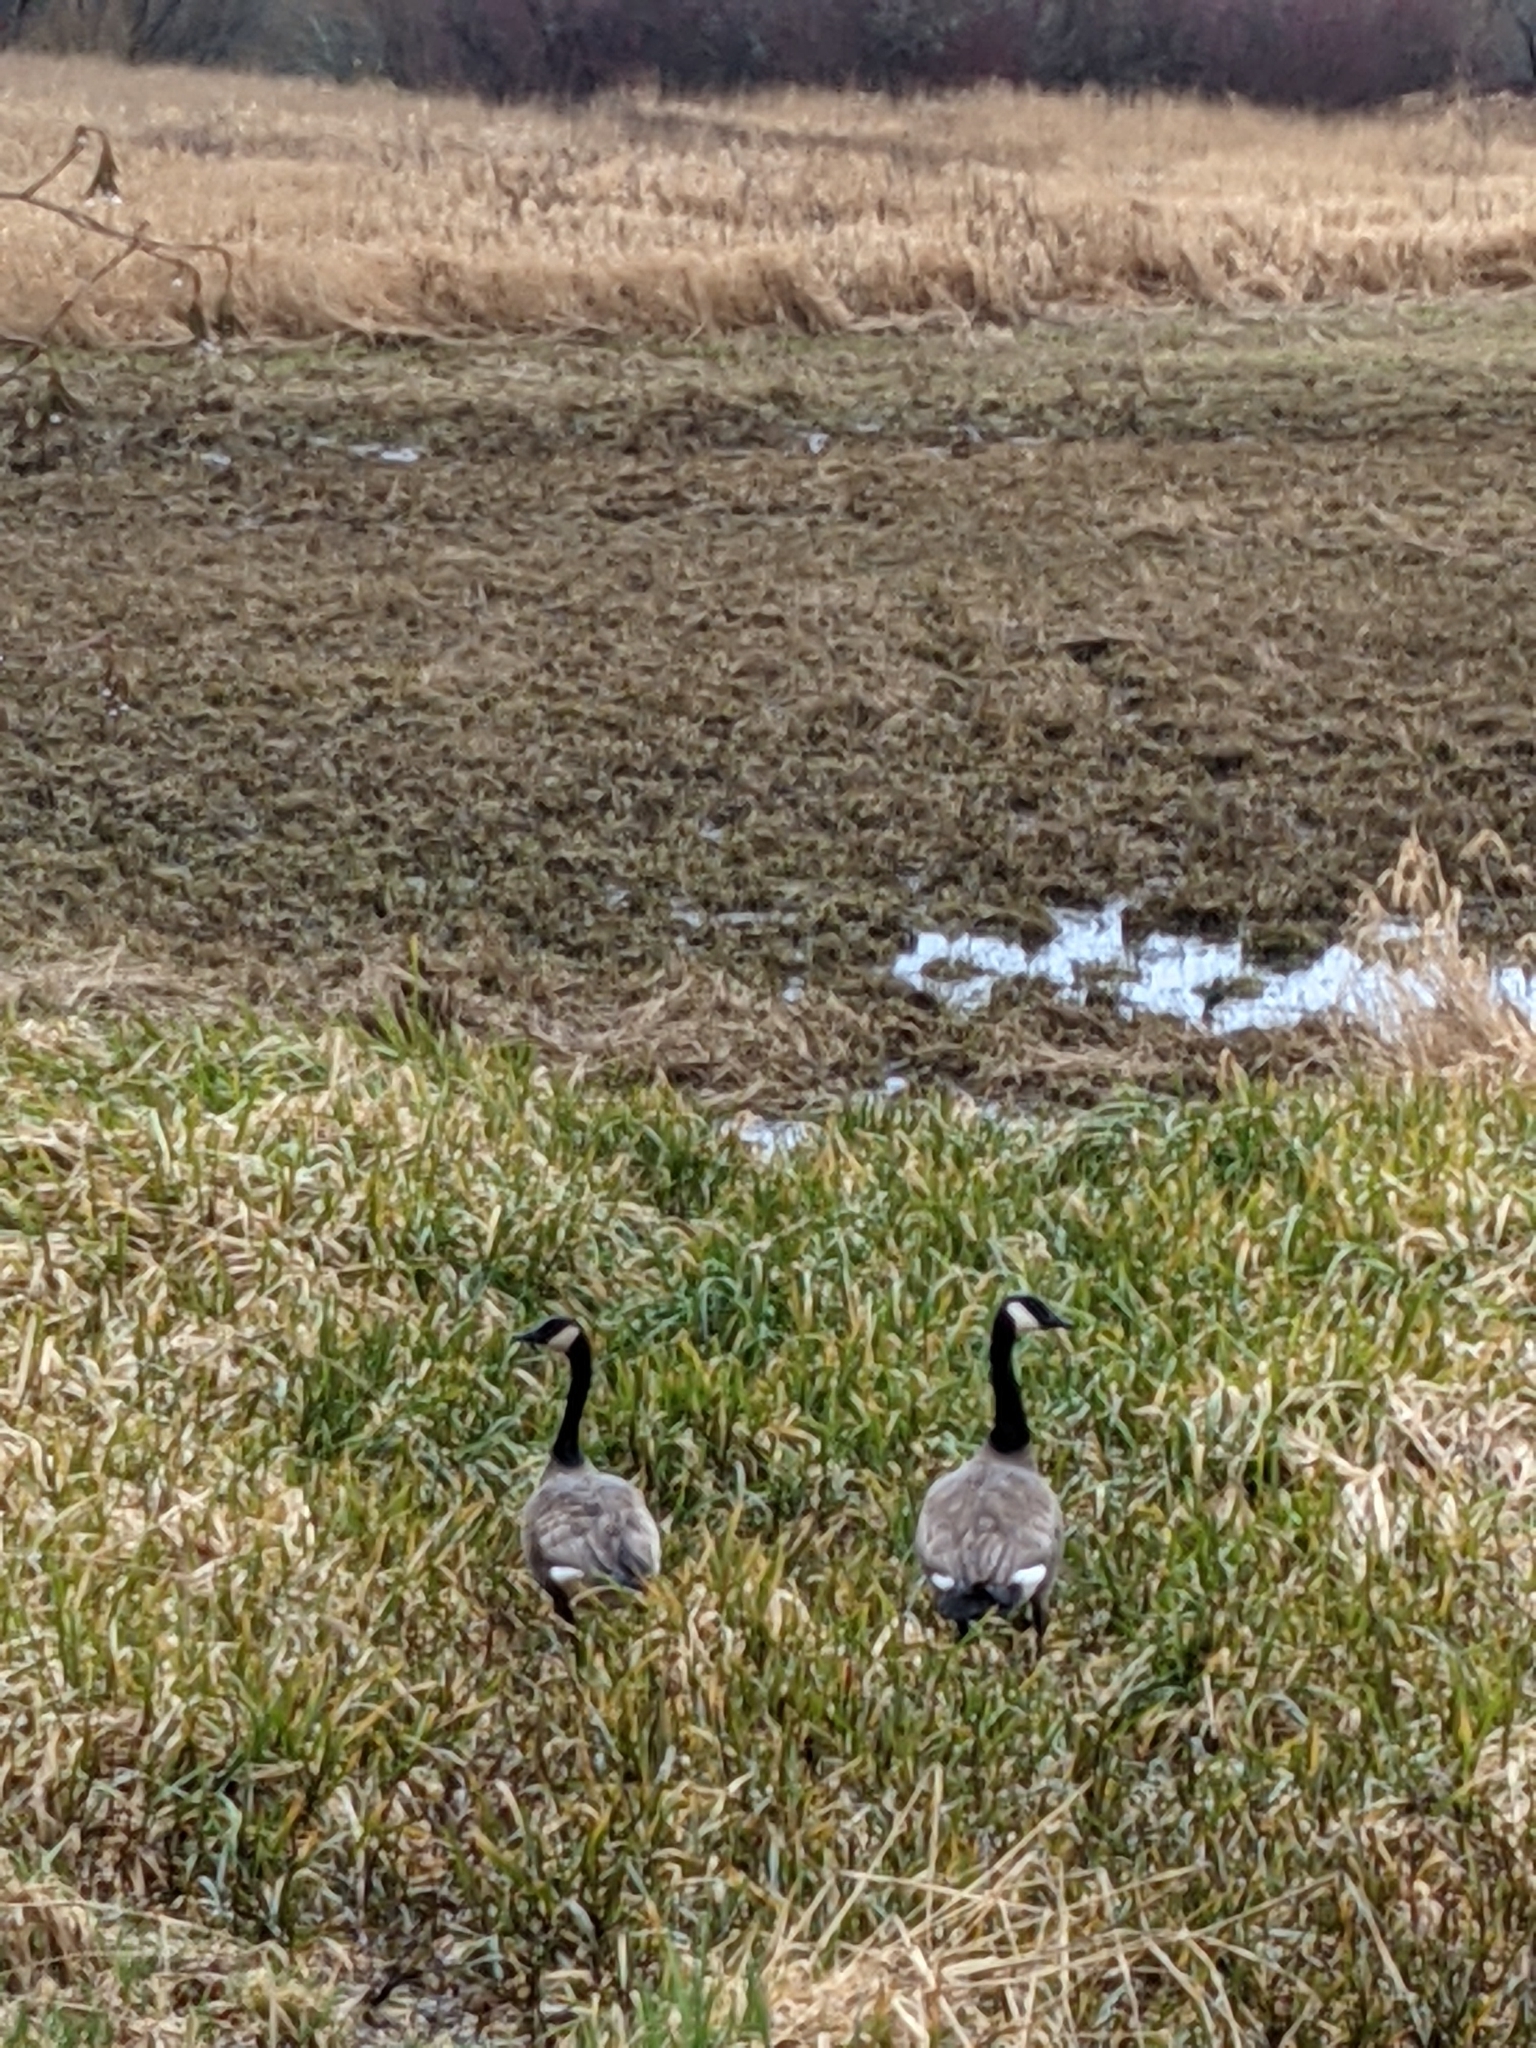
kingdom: Animalia
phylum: Chordata
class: Aves
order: Anseriformes
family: Anatidae
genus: Branta
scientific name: Branta canadensis
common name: Canada goose
